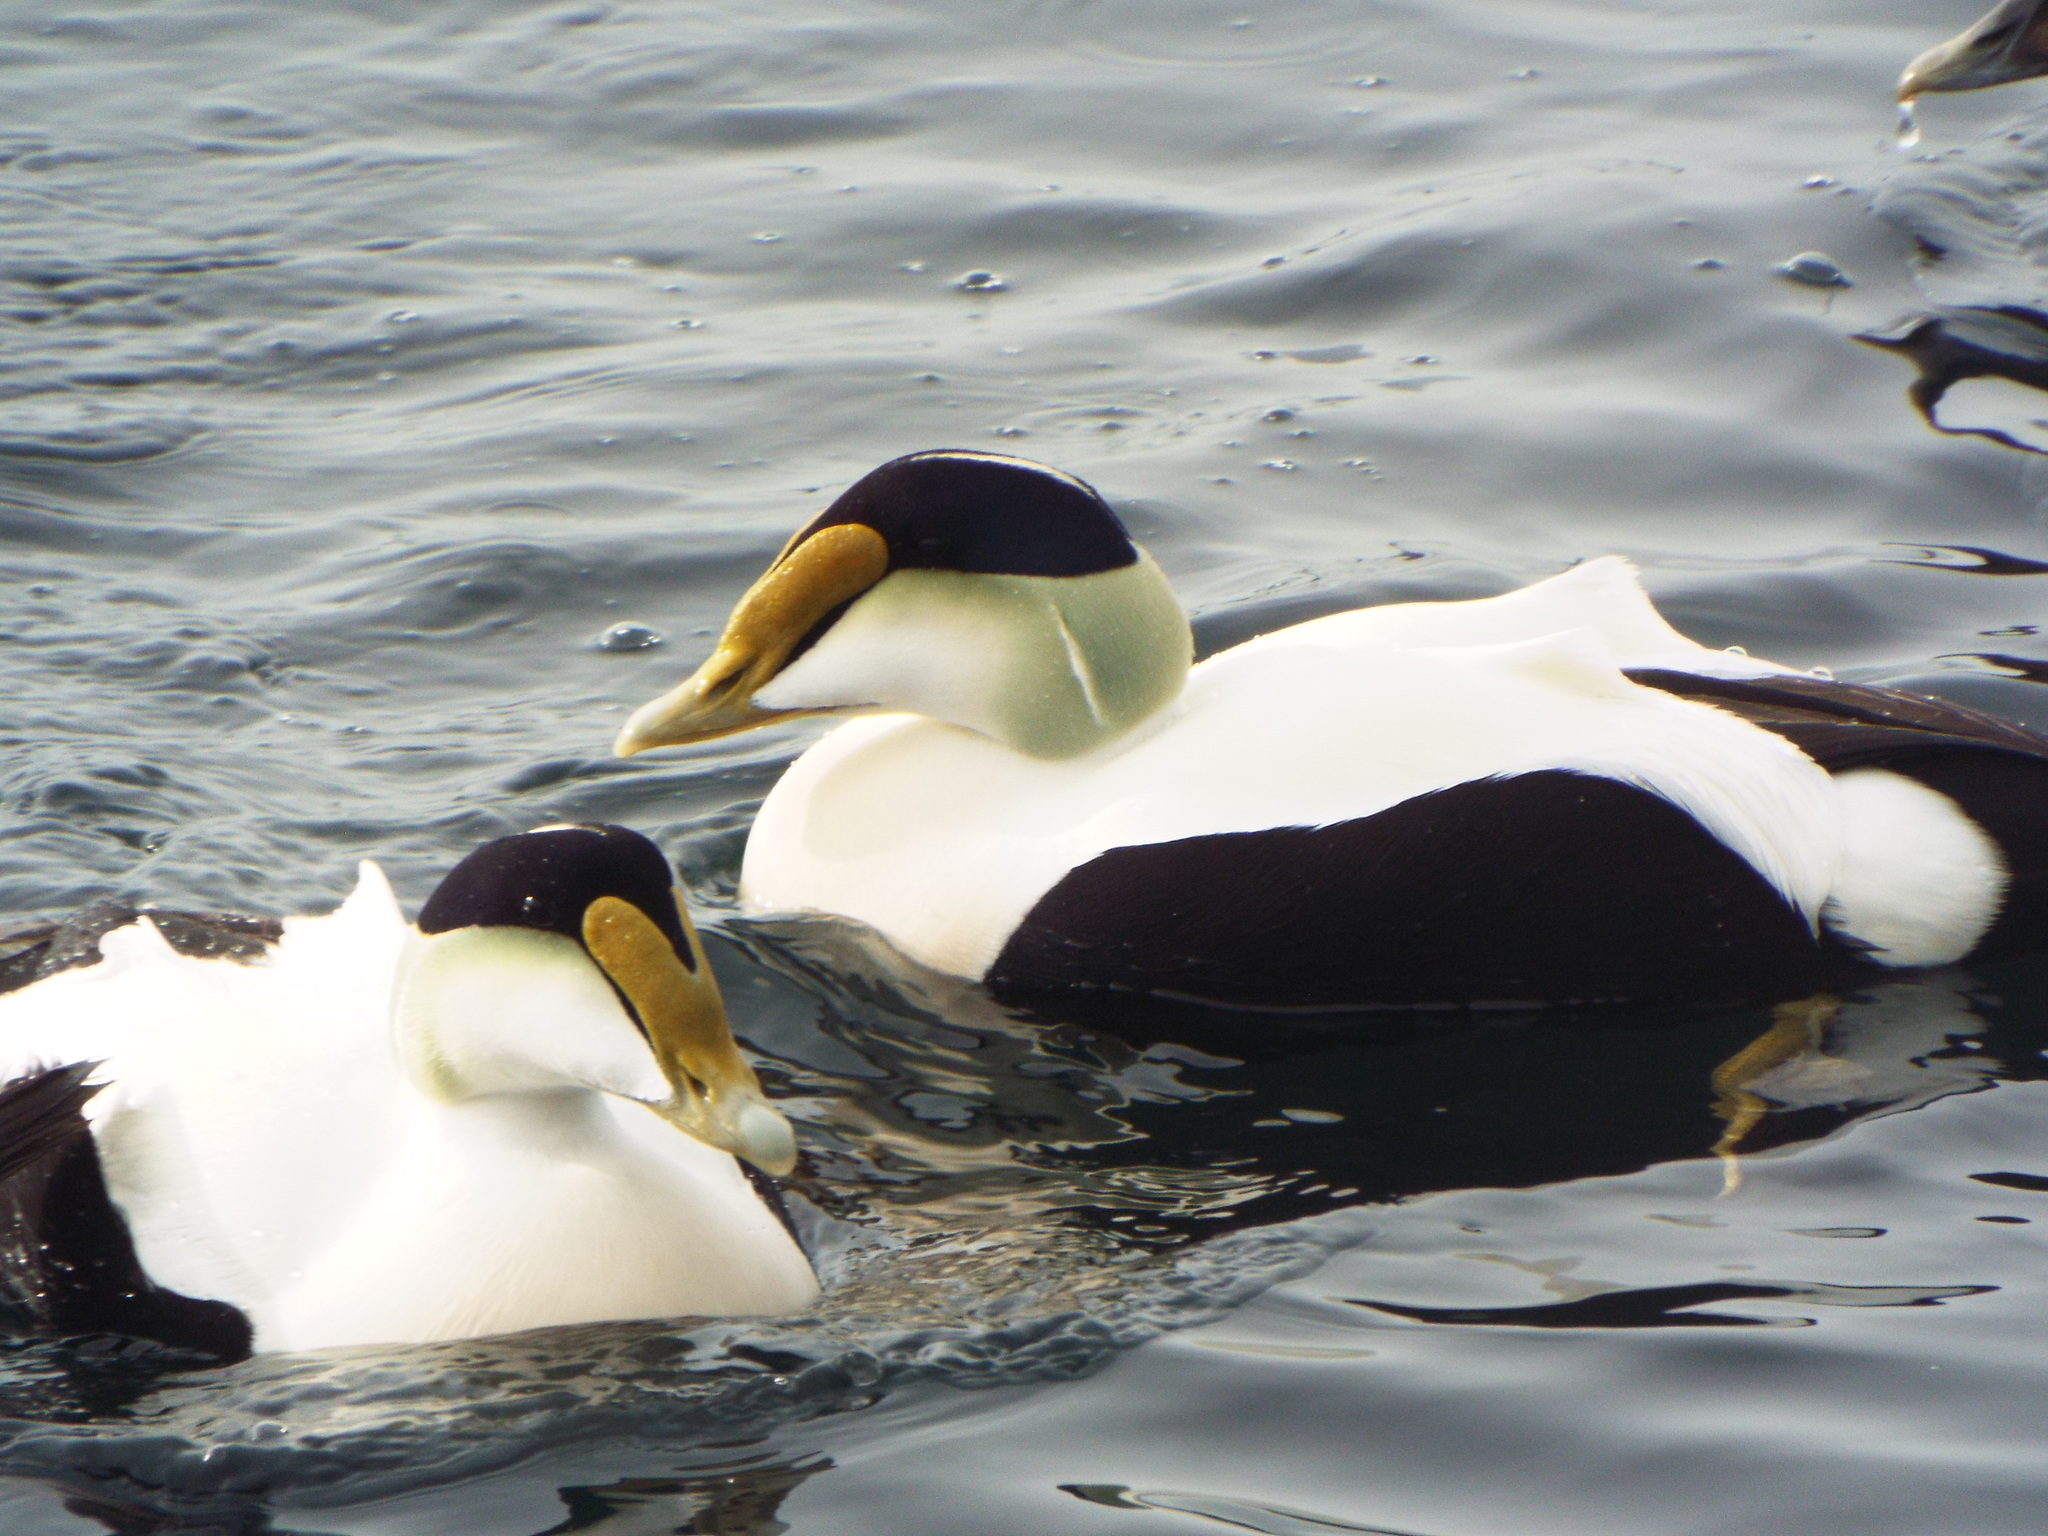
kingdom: Animalia
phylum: Chordata
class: Aves
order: Anseriformes
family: Anatidae
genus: Somateria
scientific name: Somateria mollissima
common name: Common eider
